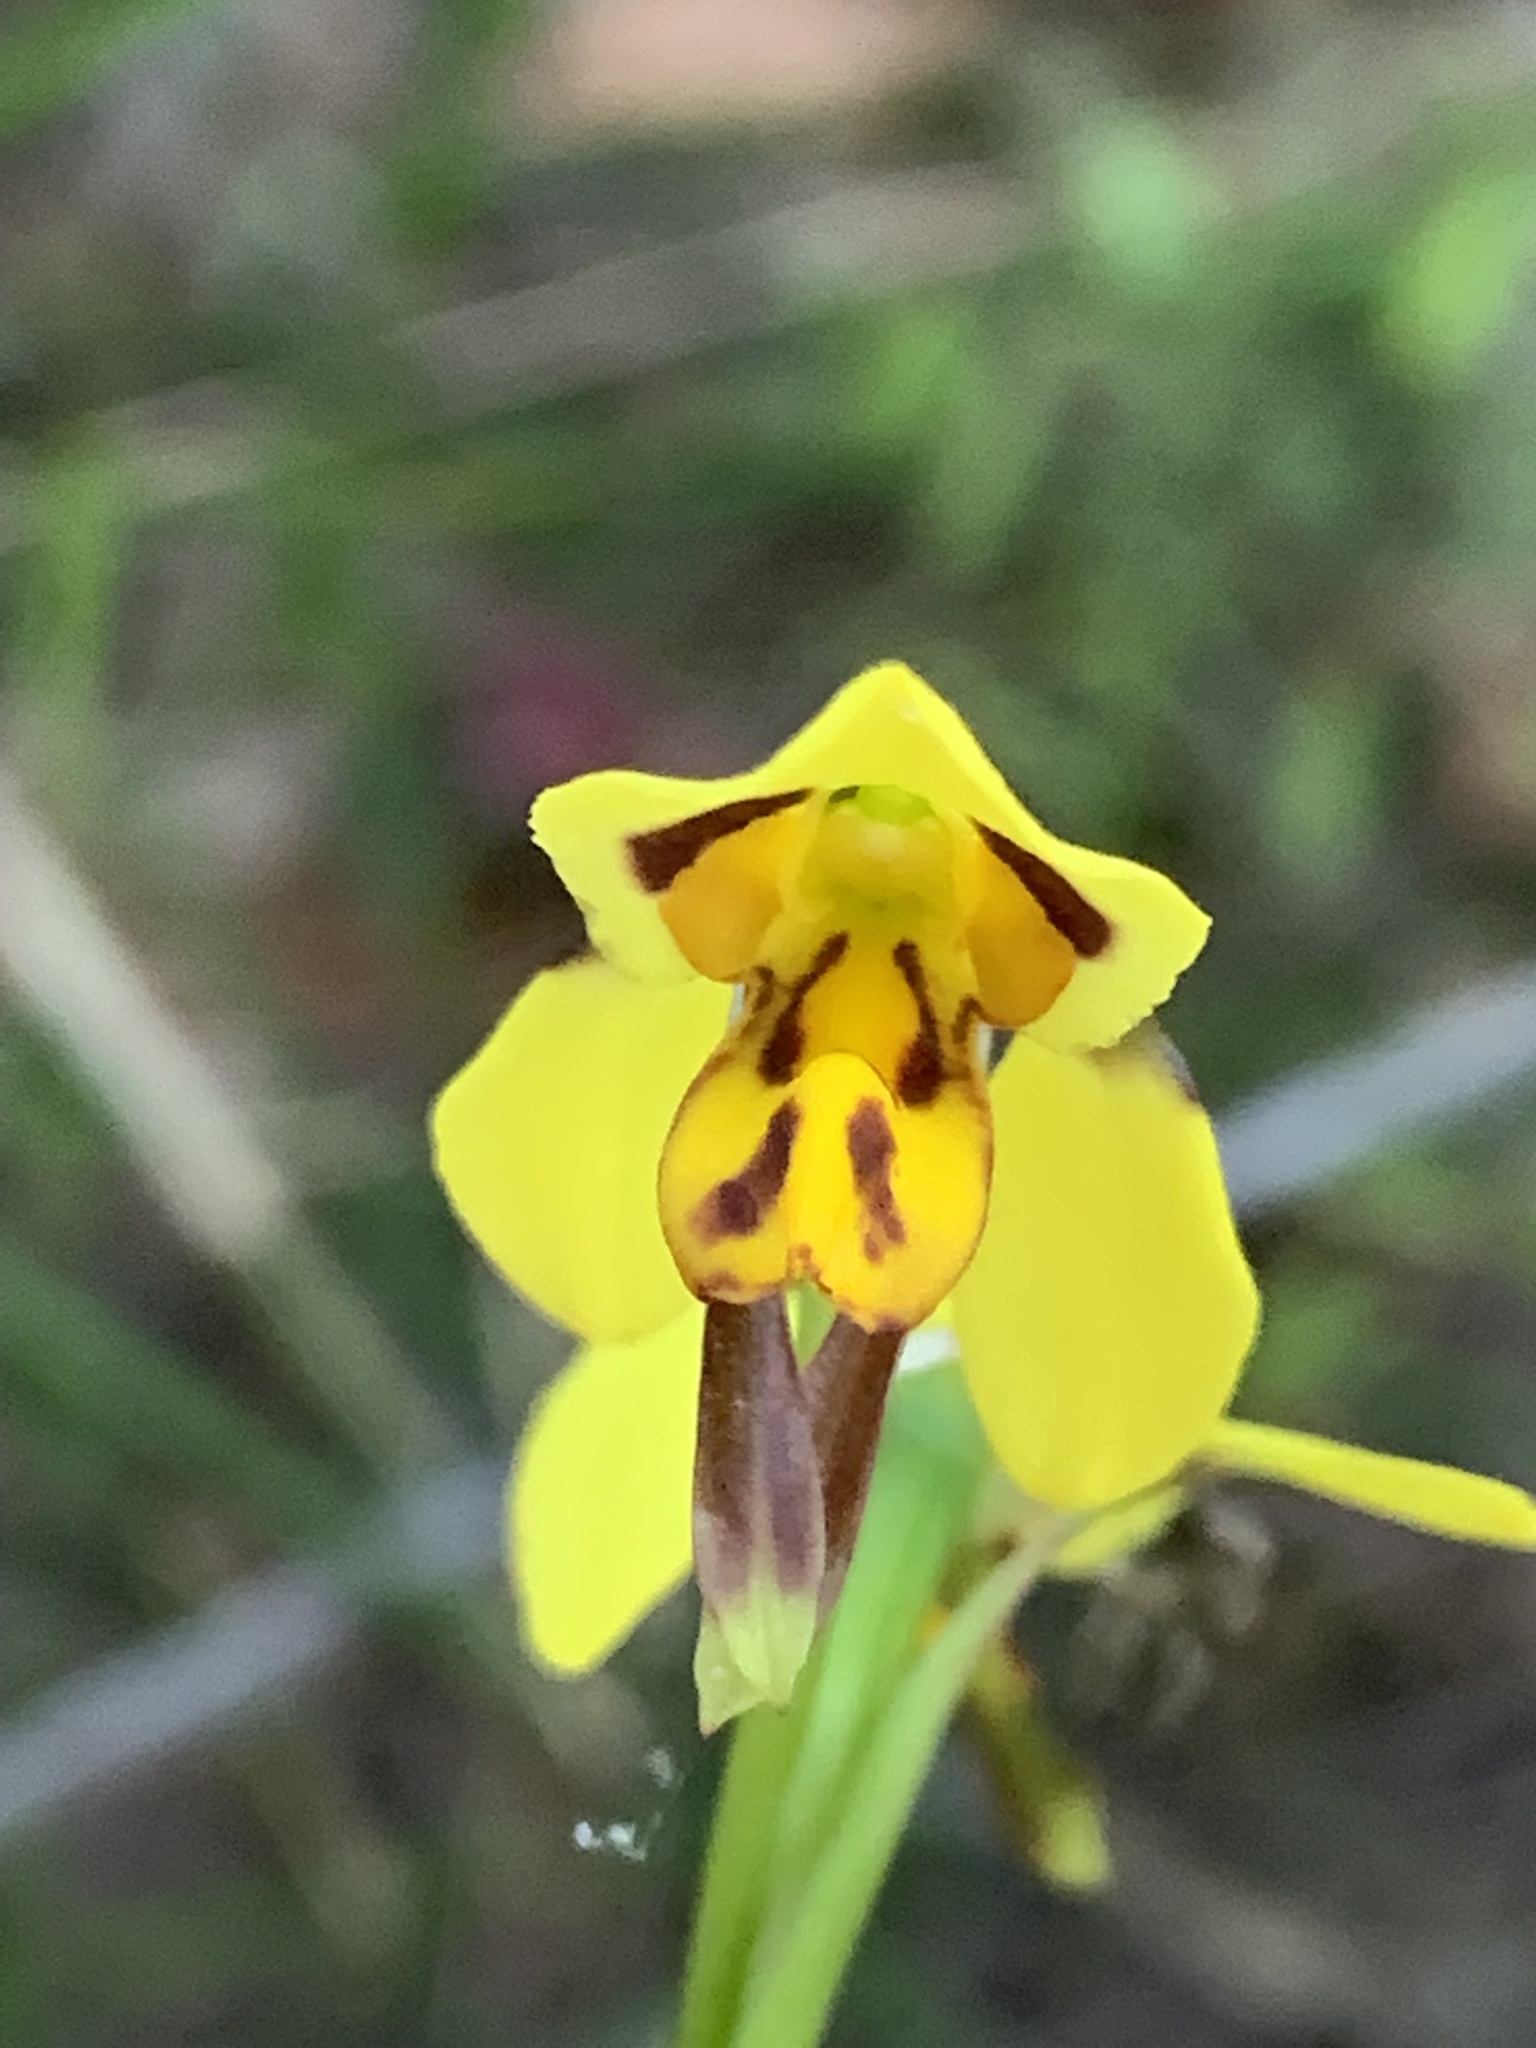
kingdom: Plantae
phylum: Tracheophyta
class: Liliopsida
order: Asparagales
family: Orchidaceae
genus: Diuris
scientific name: Diuris sulphurea
